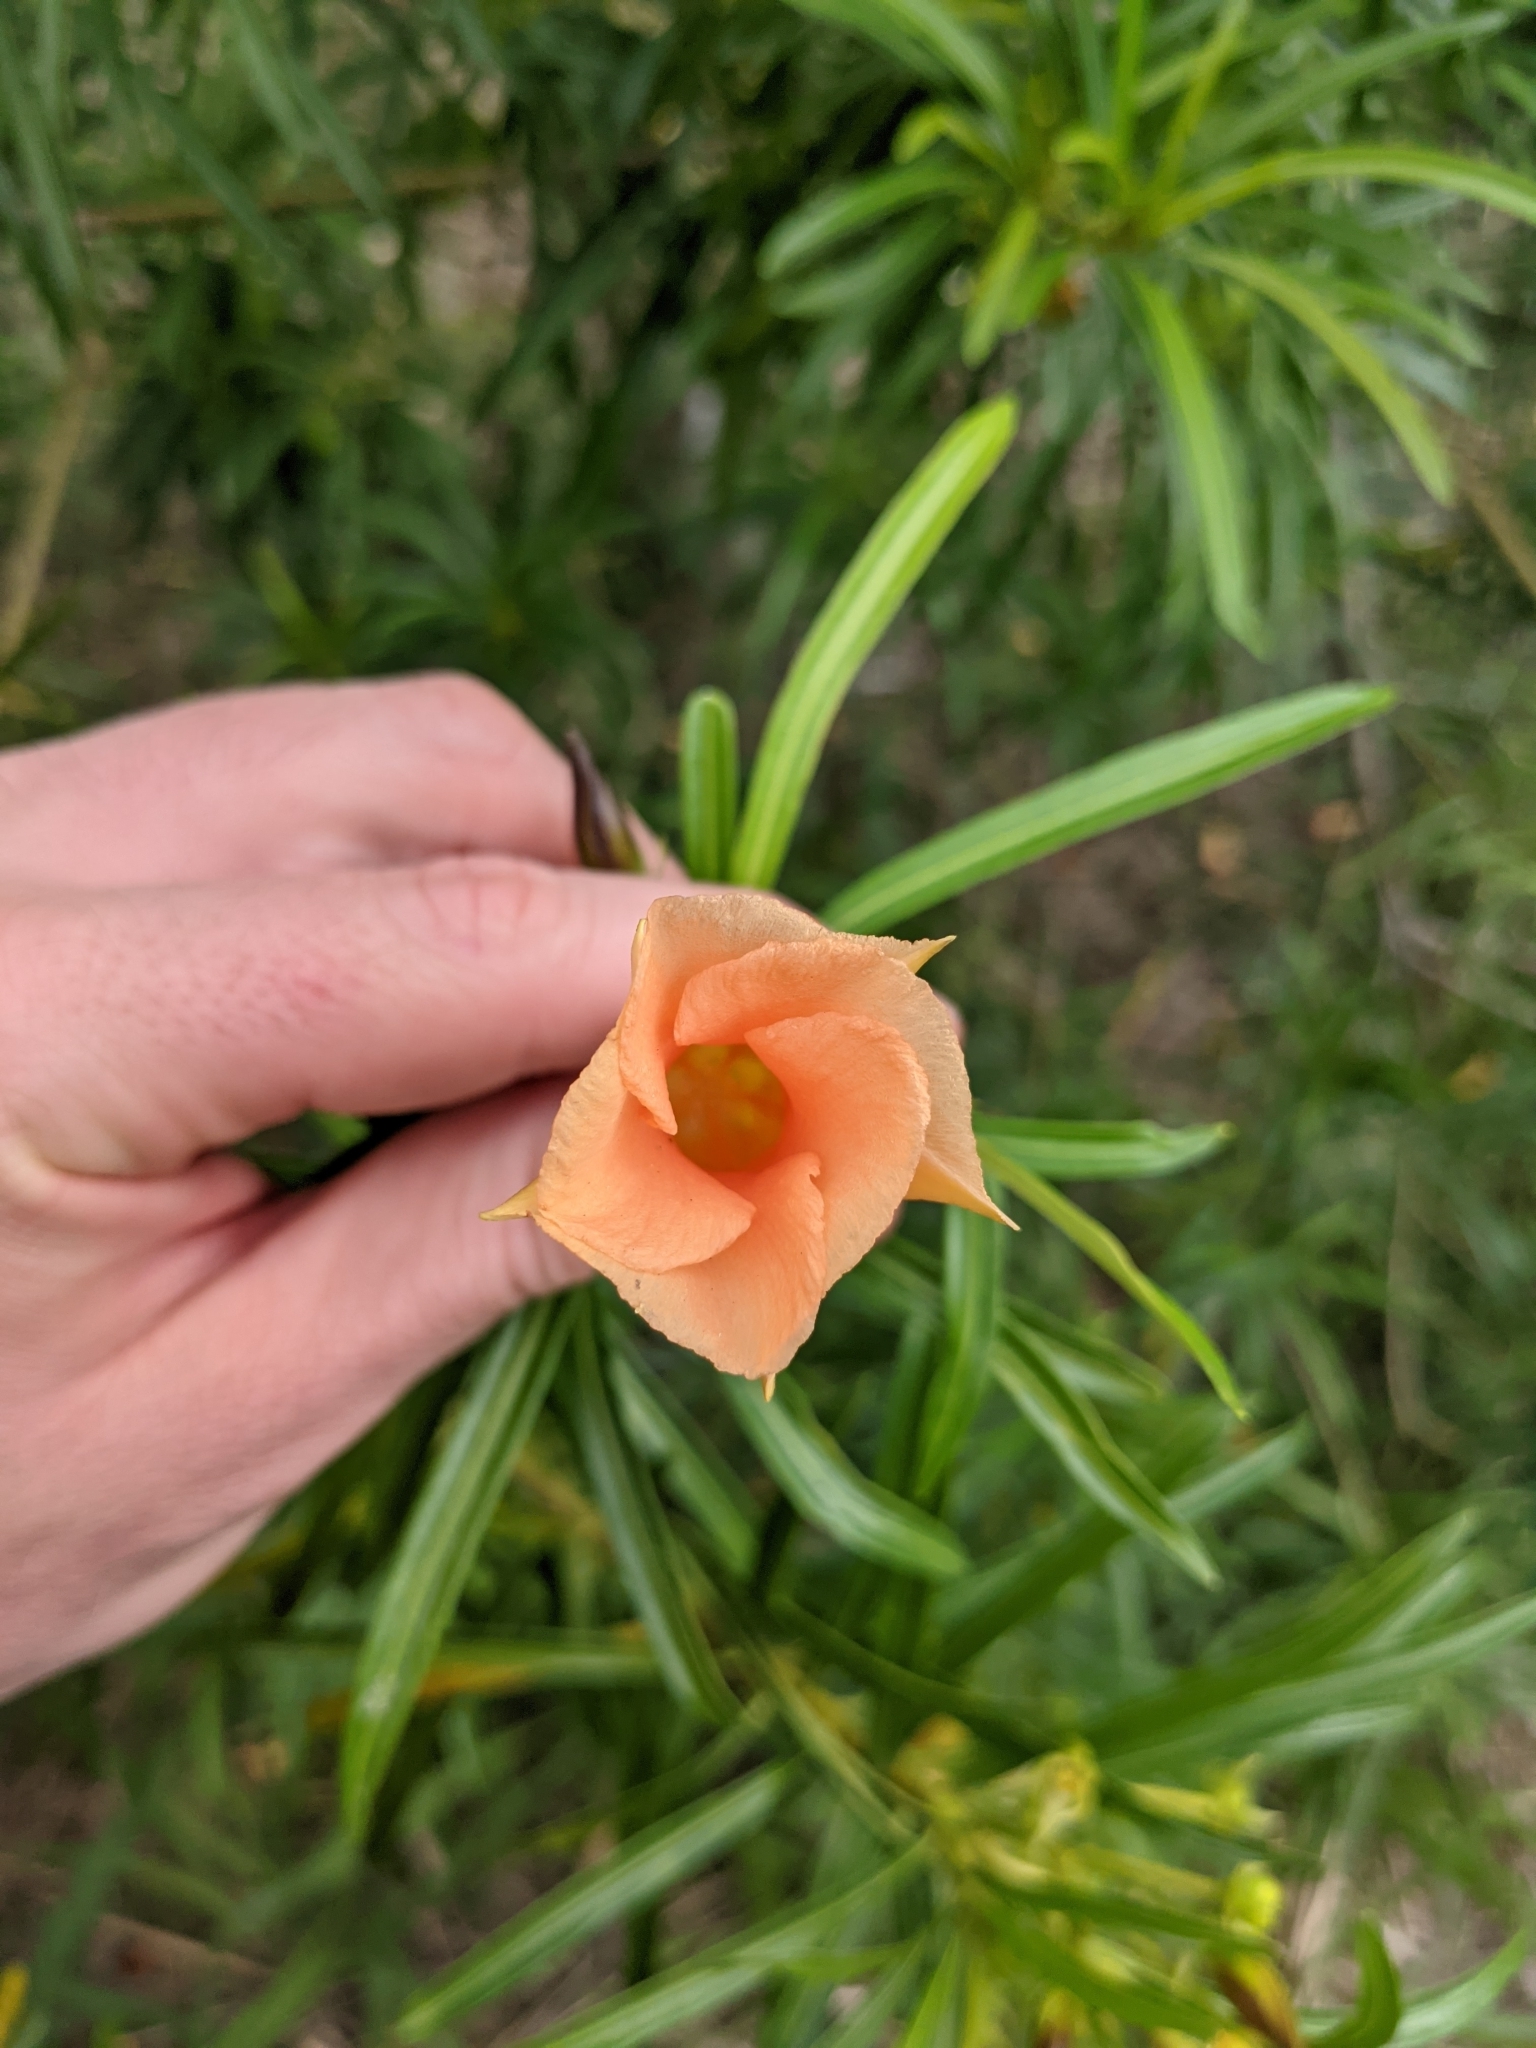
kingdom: Plantae
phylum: Tracheophyta
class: Magnoliopsida
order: Gentianales
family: Apocynaceae
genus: Cascabela
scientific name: Cascabela thevetia
